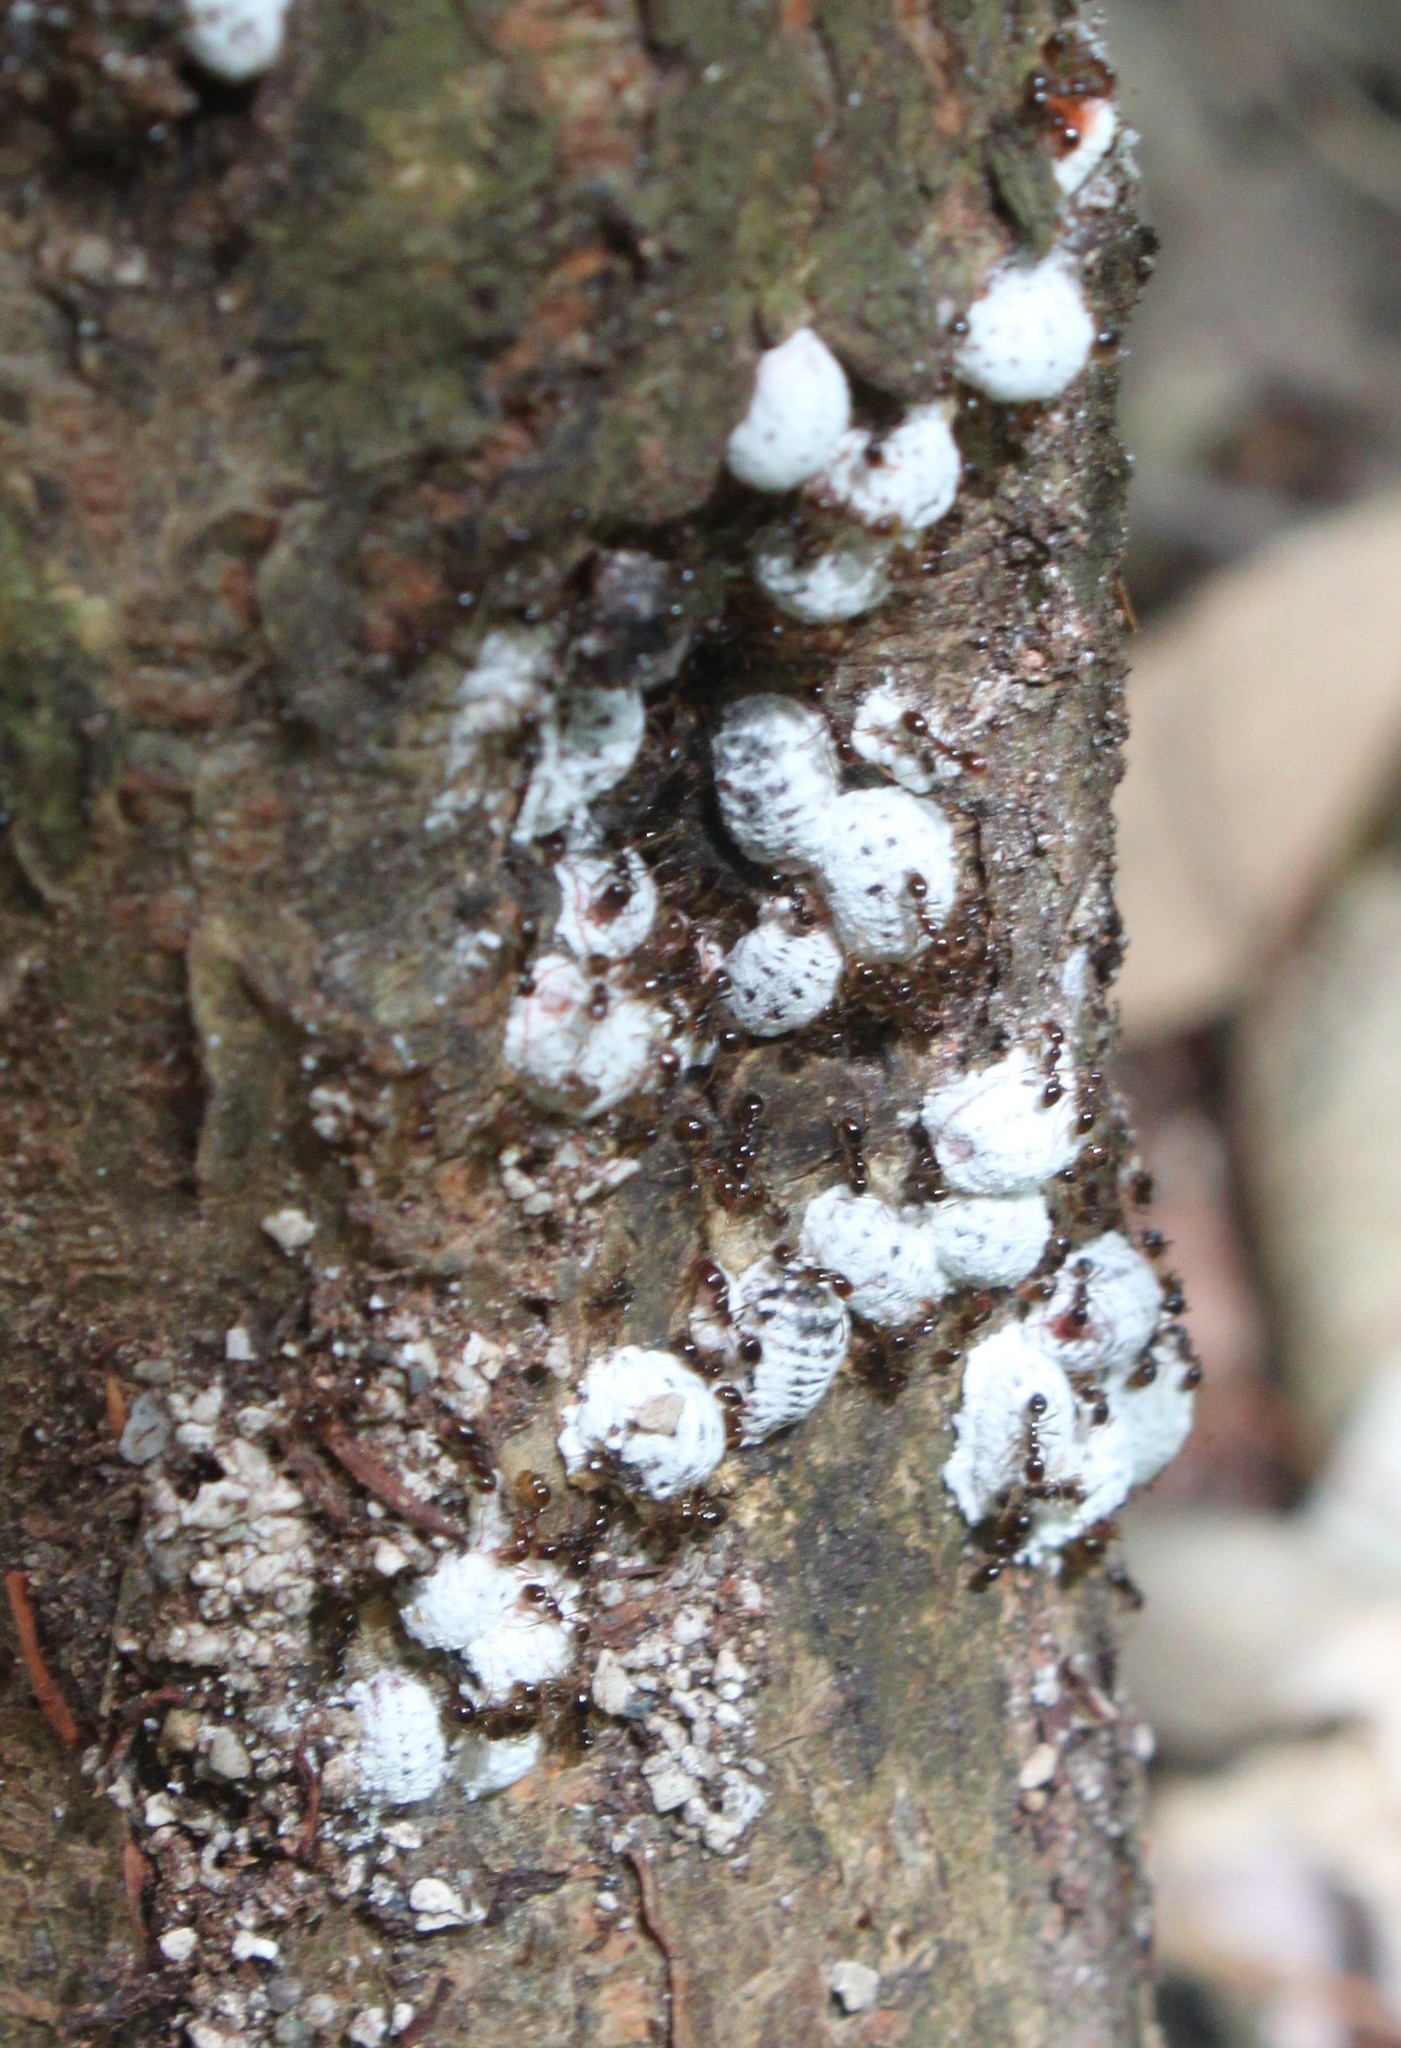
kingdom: Animalia
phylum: Arthropoda
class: Insecta
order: Hymenoptera
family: Formicidae
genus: Solenopsis
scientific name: Solenopsis invicta
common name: Red imported fire ant
